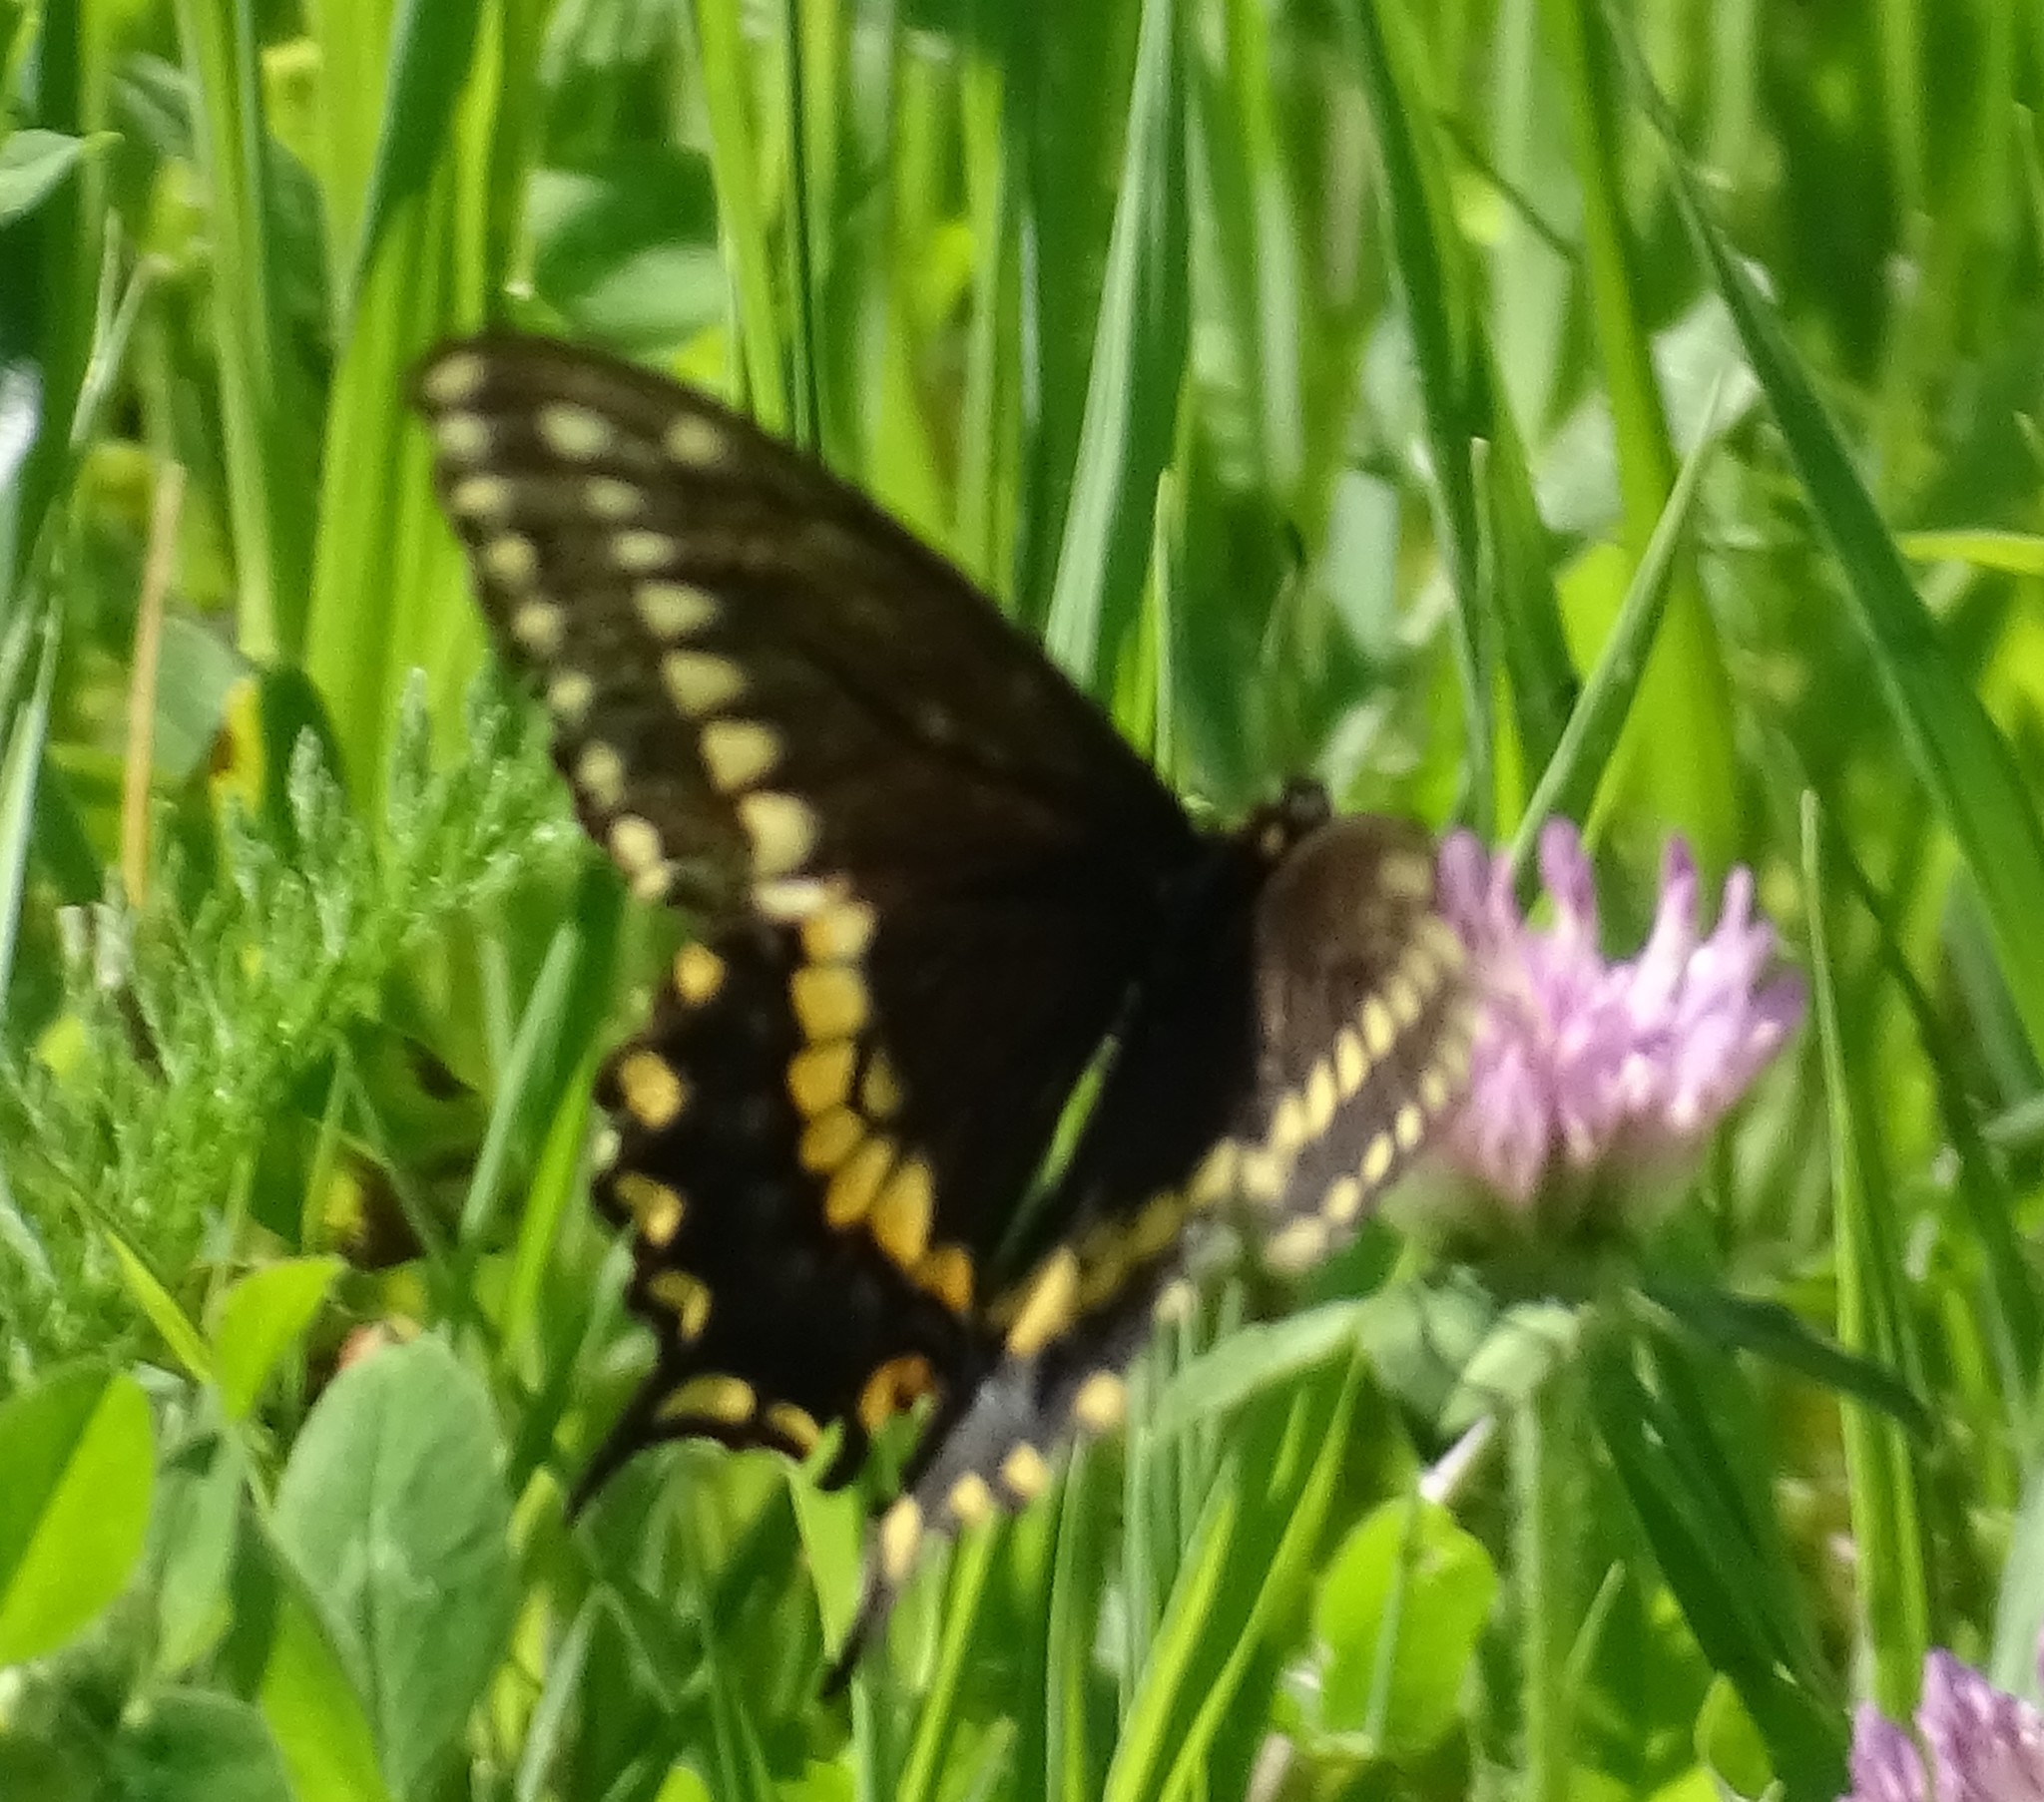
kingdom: Animalia
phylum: Arthropoda
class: Insecta
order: Lepidoptera
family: Papilionidae
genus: Papilio
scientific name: Papilio polyxenes
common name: Black swallowtail
